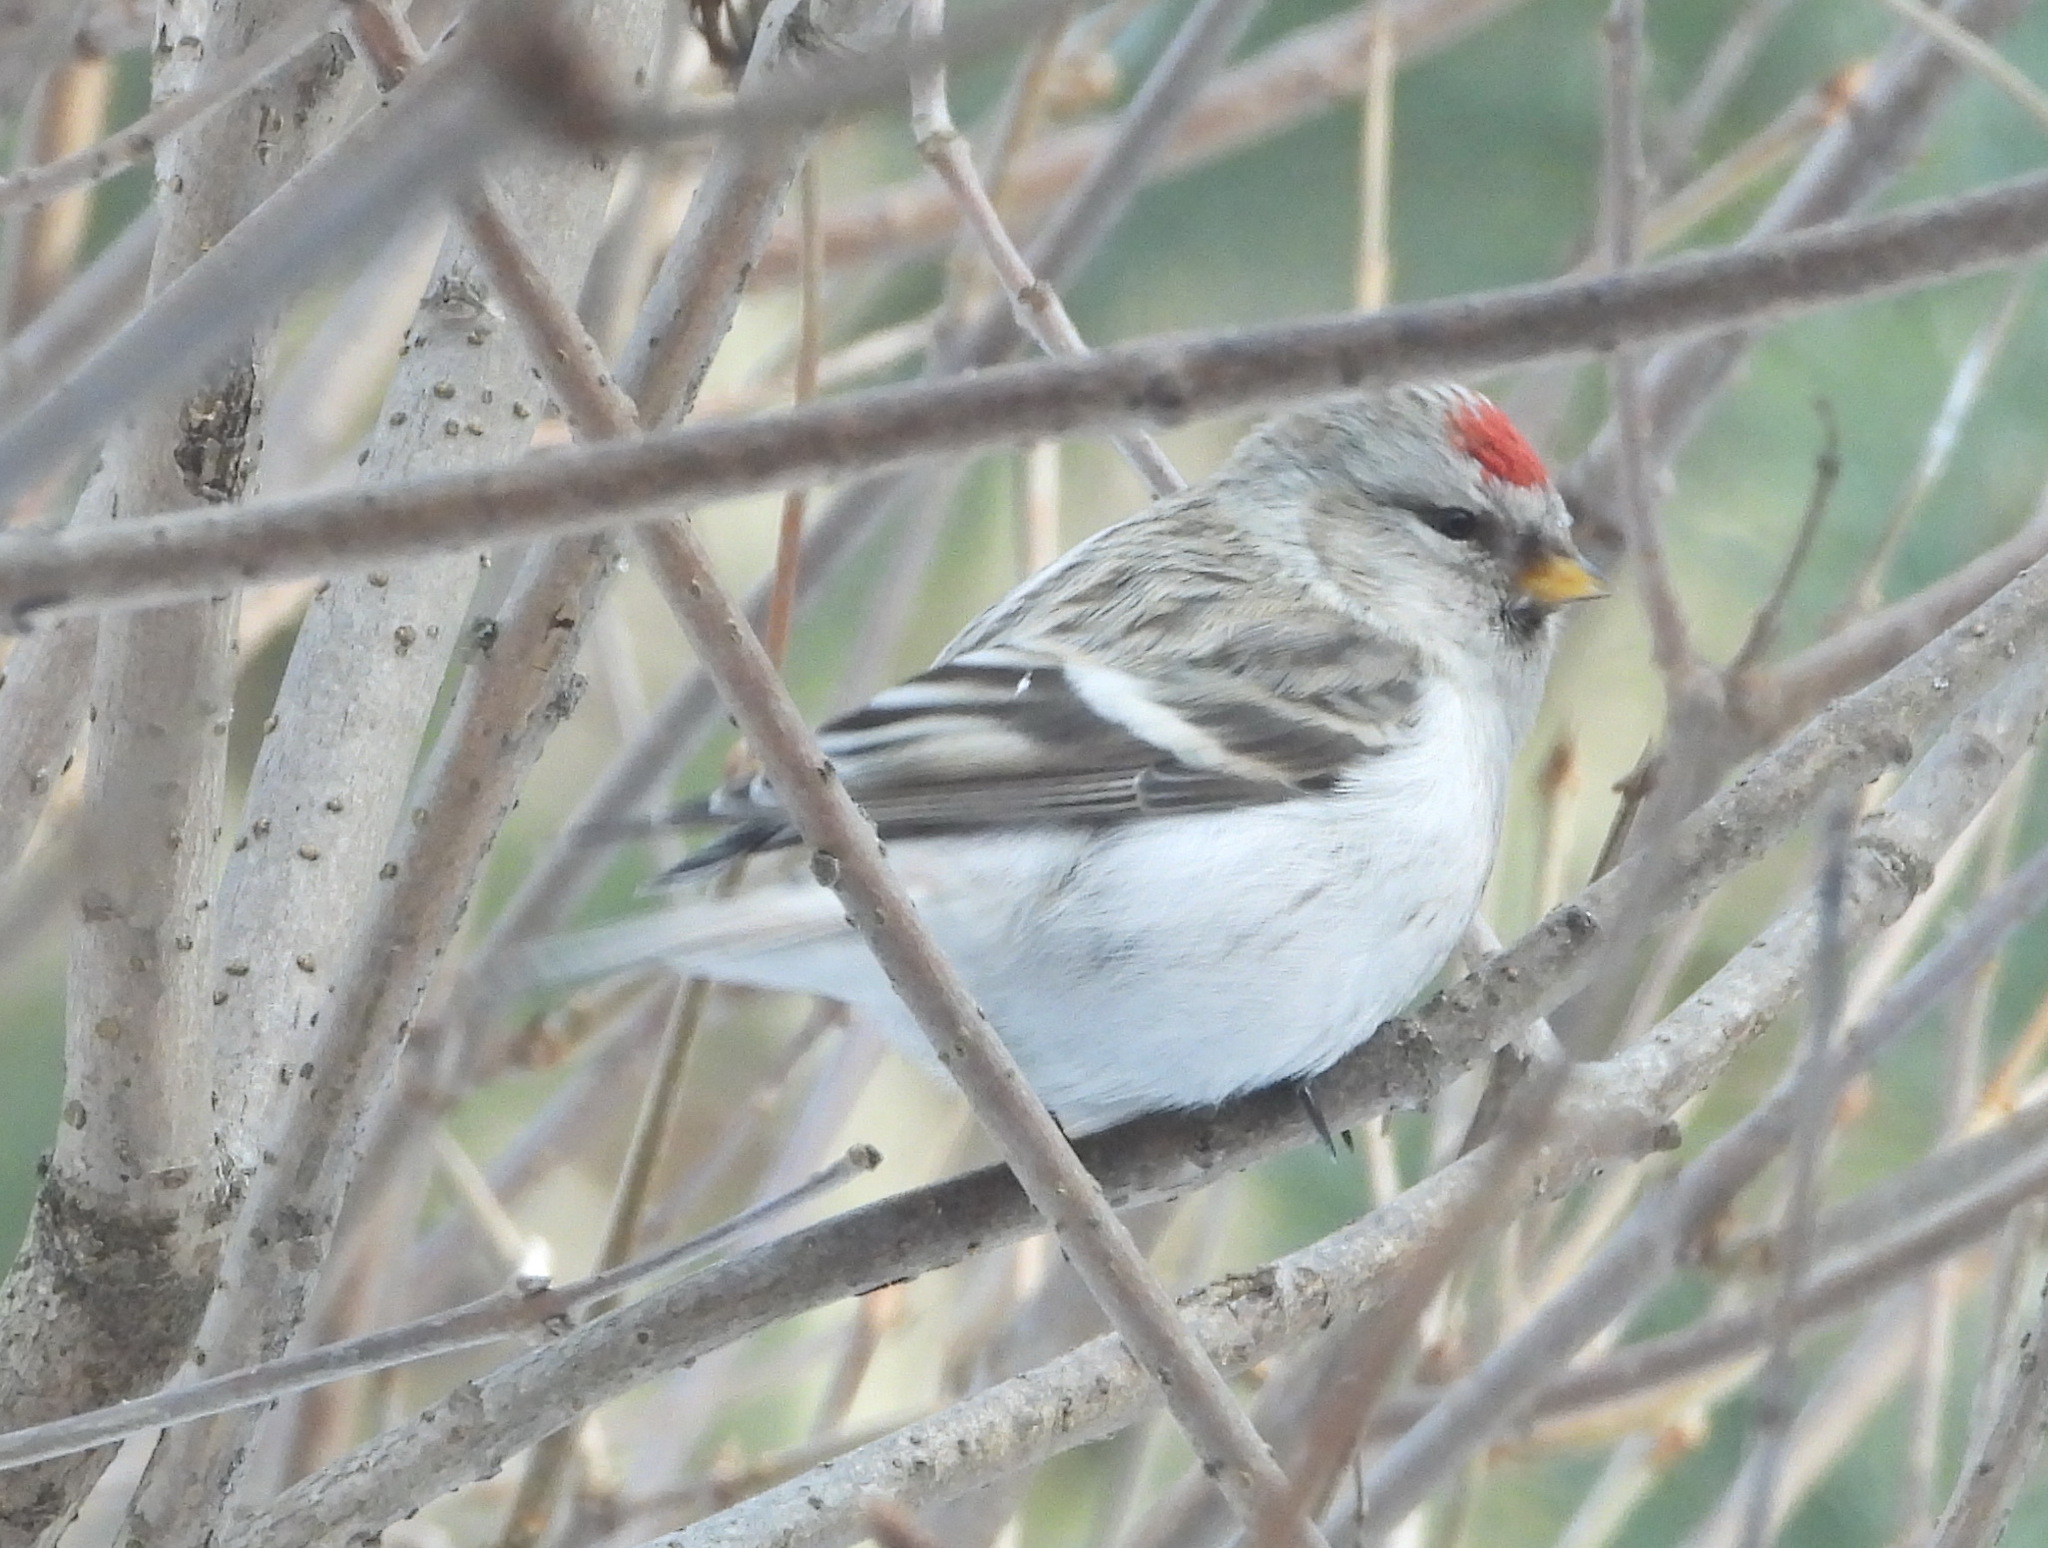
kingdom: Animalia
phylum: Chordata
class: Aves
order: Passeriformes
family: Fringillidae
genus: Acanthis
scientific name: Acanthis hornemanni
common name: Arctic redpoll
